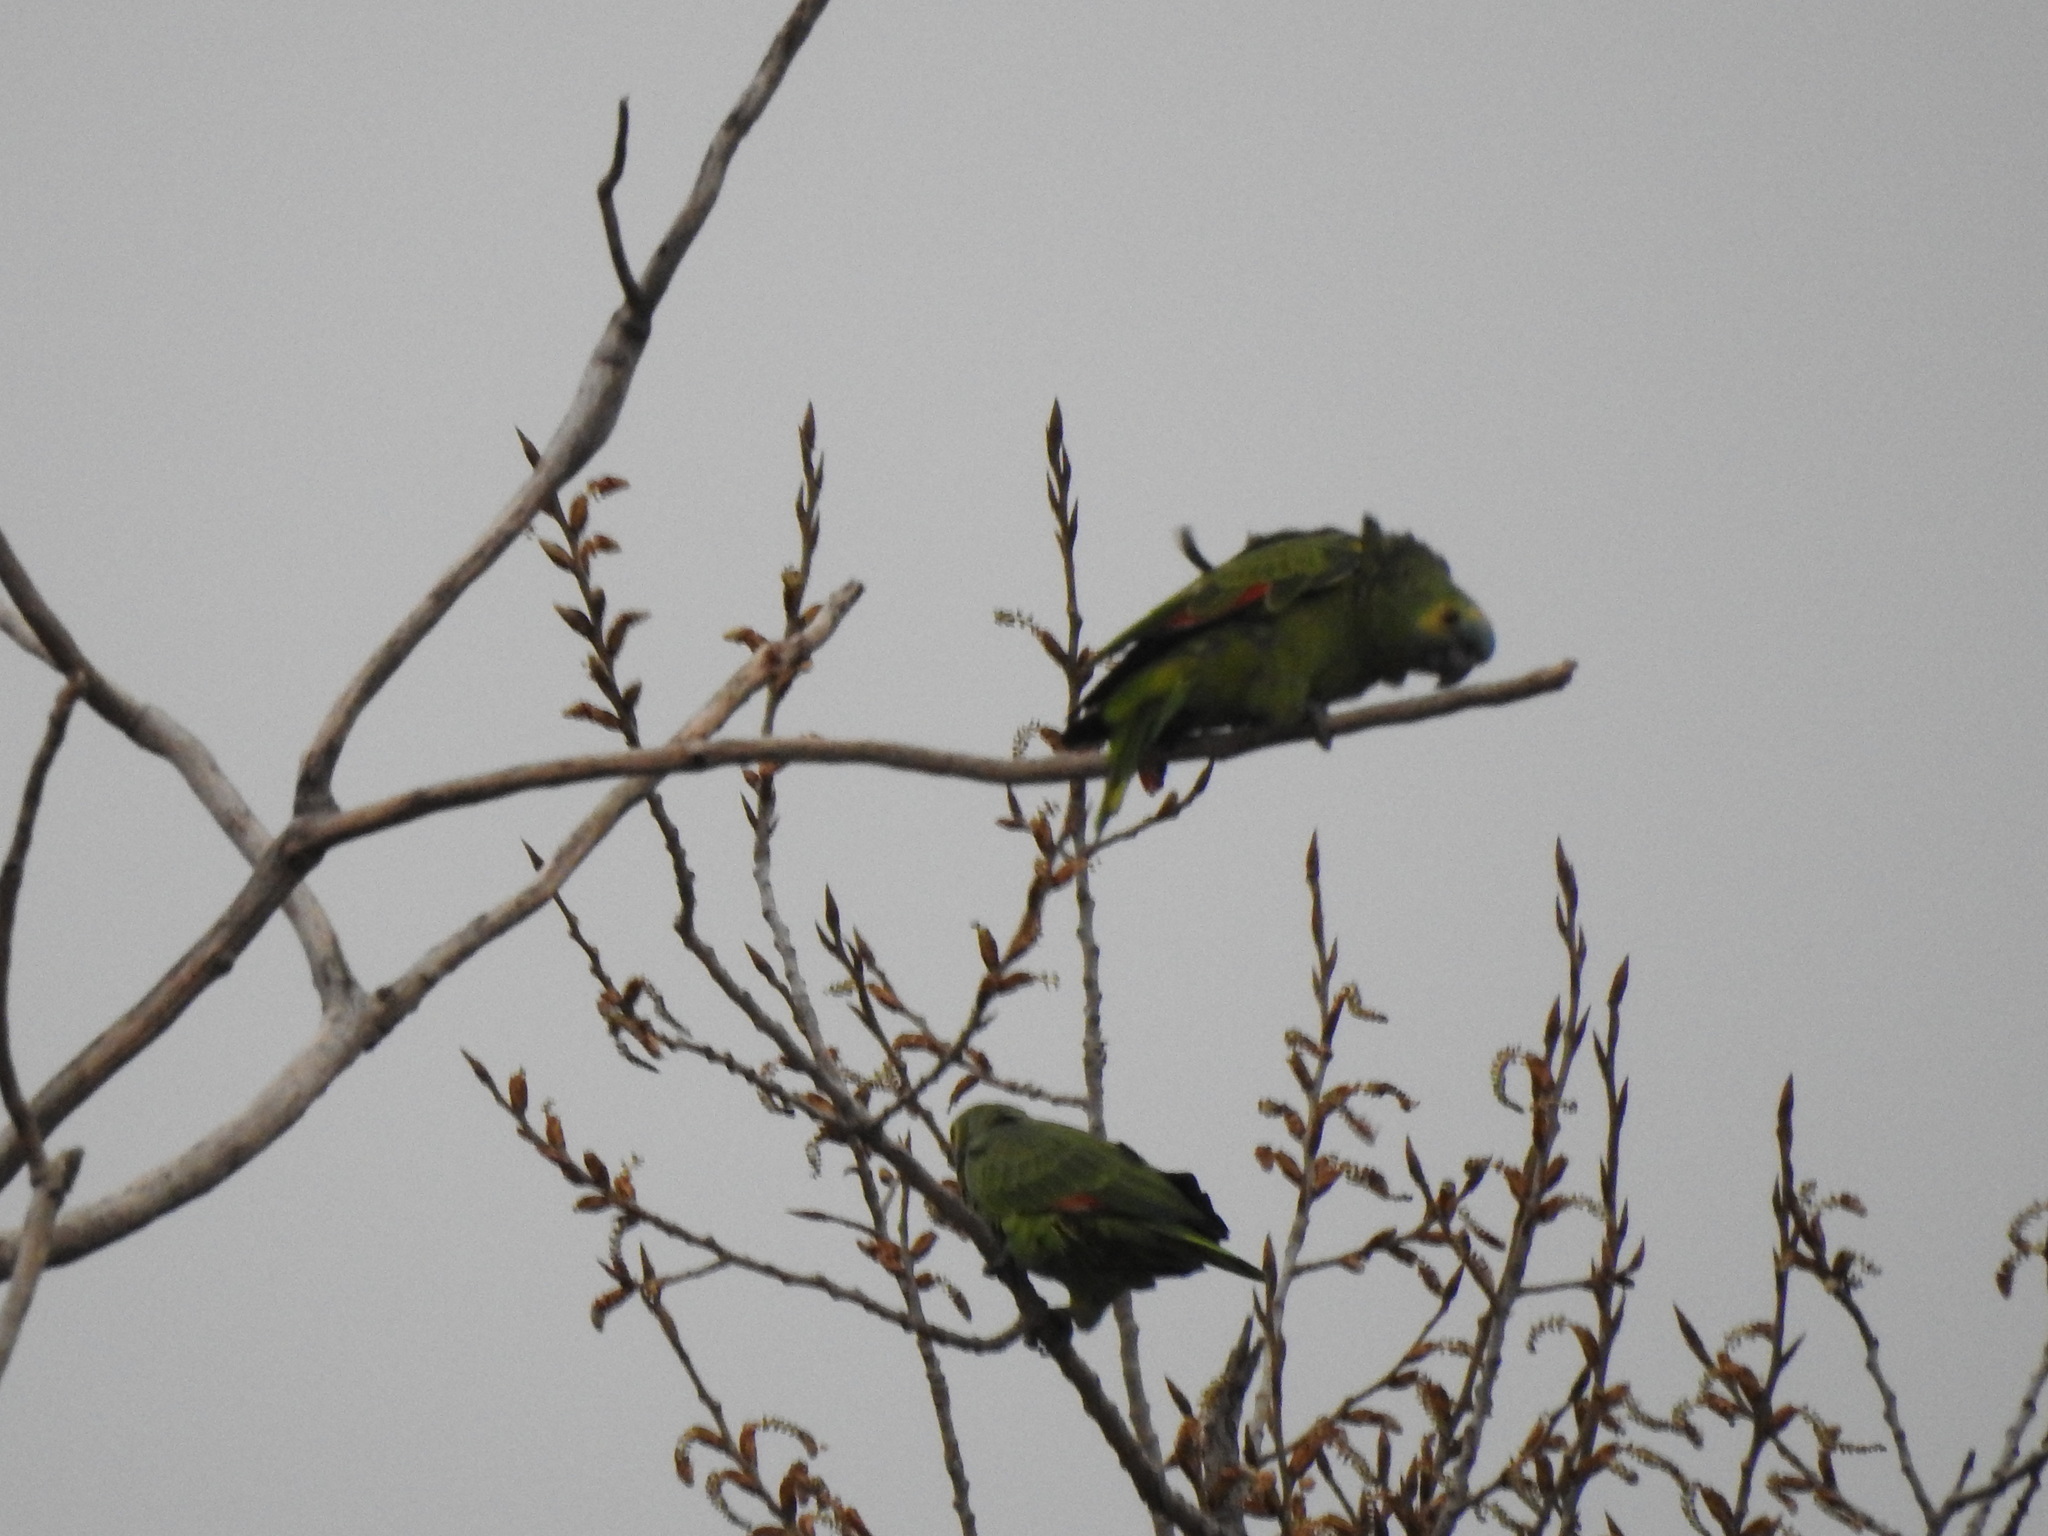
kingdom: Animalia
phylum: Chordata
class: Aves
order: Psittaciformes
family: Psittacidae
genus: Amazona
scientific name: Amazona aestiva
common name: Turquoise-fronted amazon
